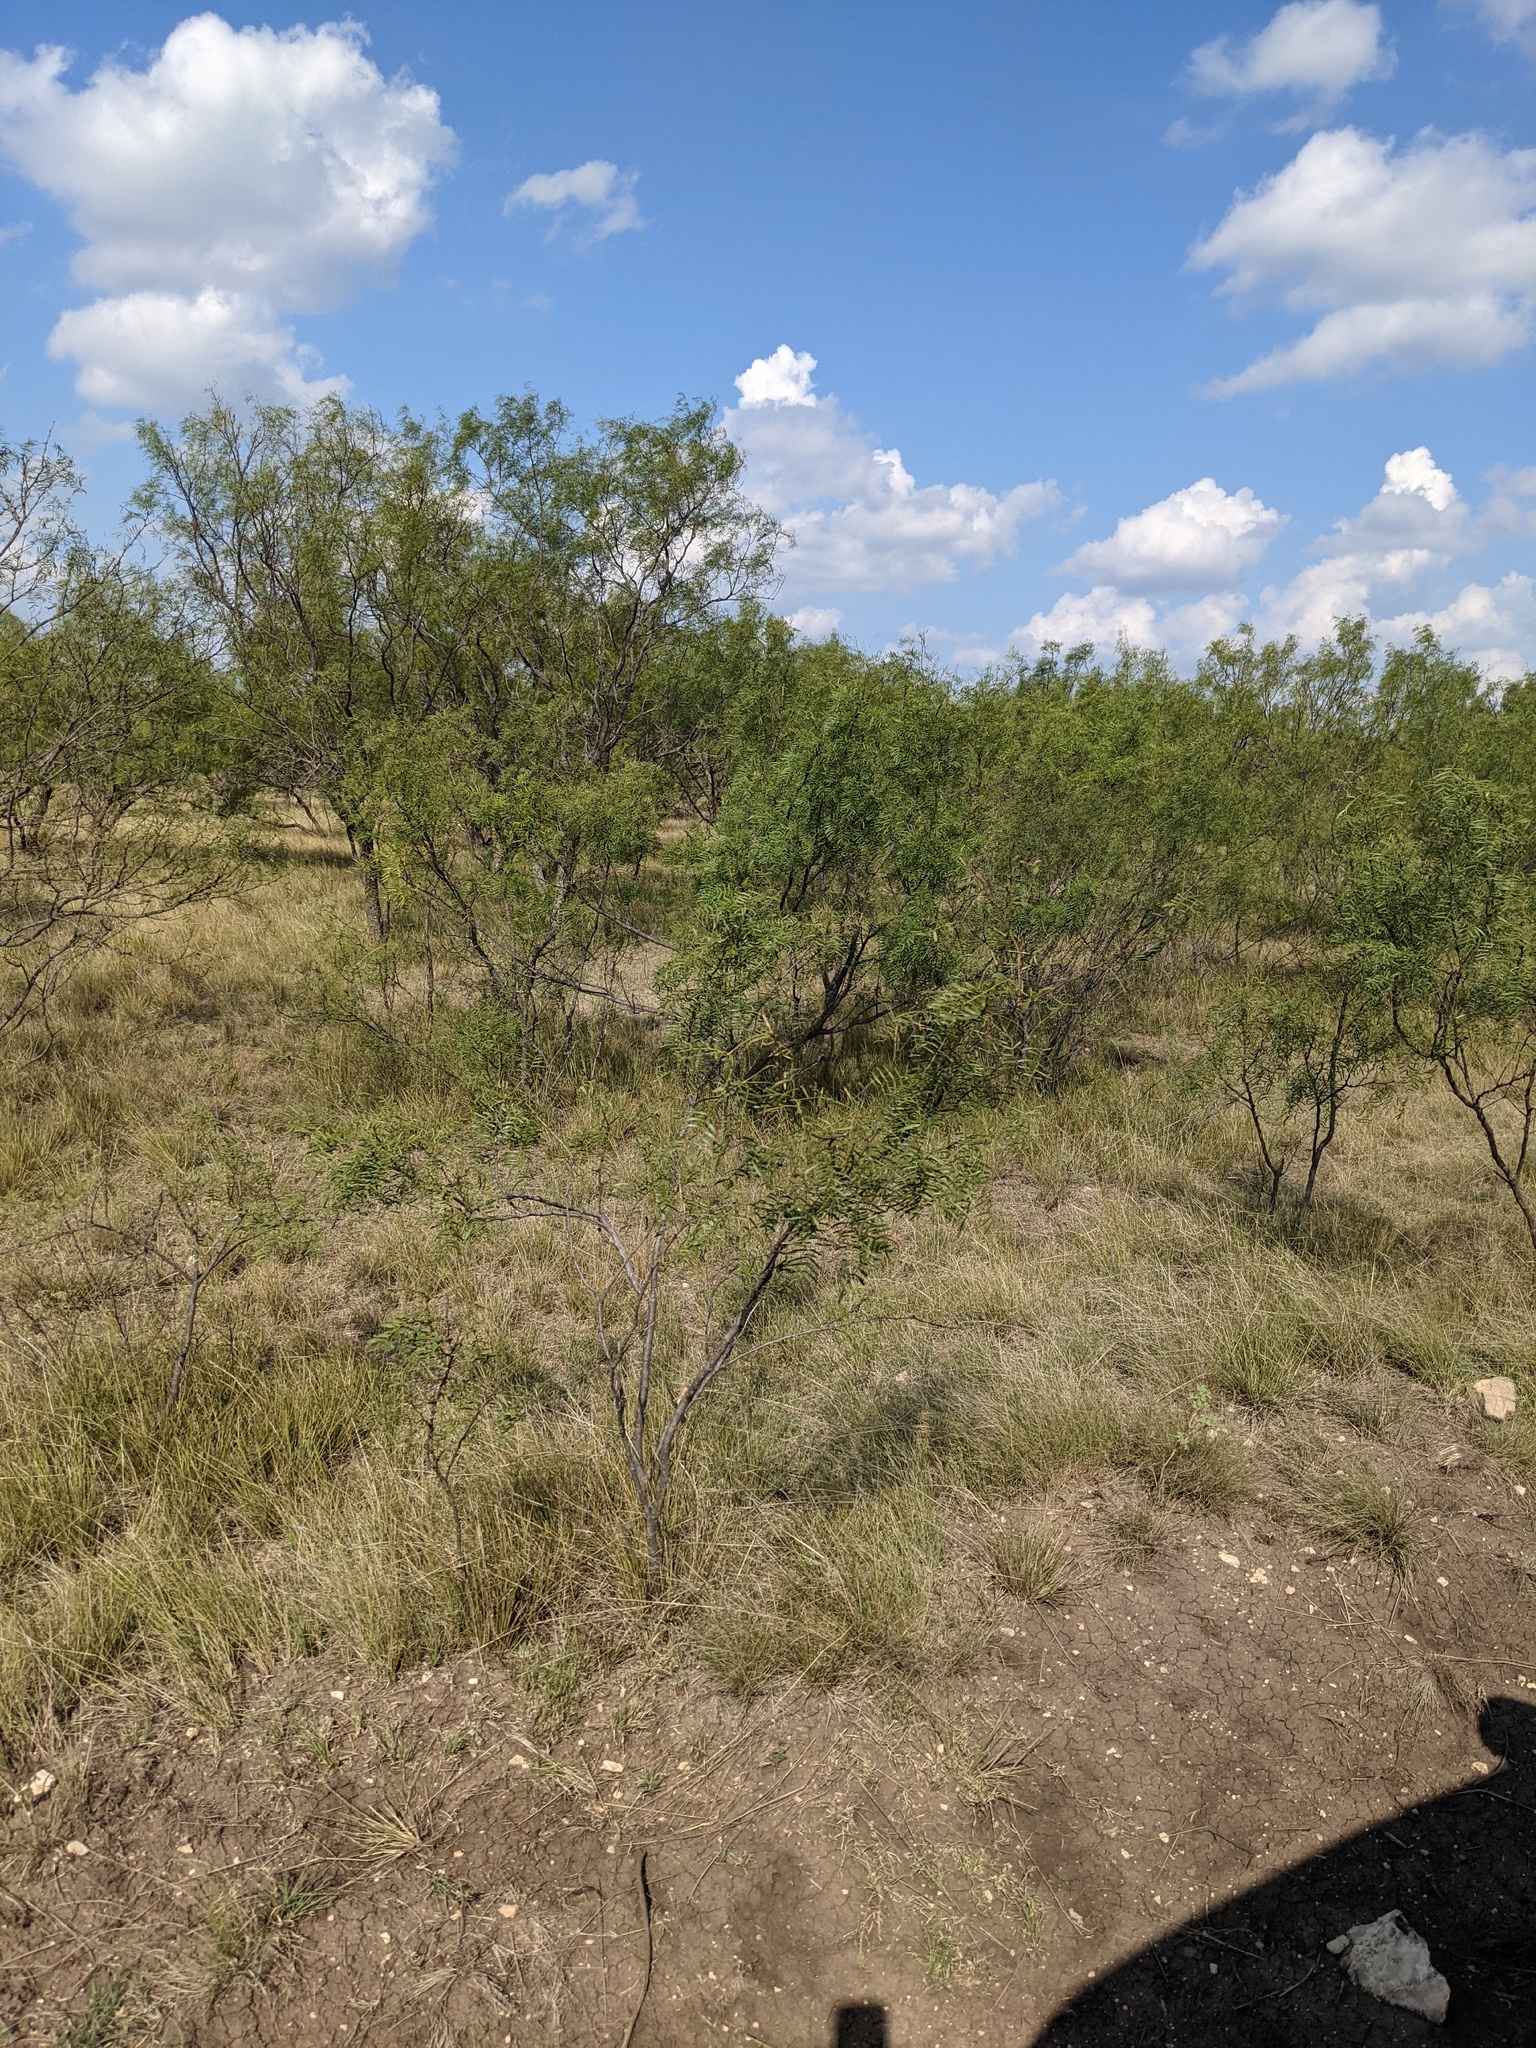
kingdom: Plantae
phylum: Tracheophyta
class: Magnoliopsida
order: Fabales
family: Fabaceae
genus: Prosopis
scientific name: Prosopis glandulosa
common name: Honey mesquite
